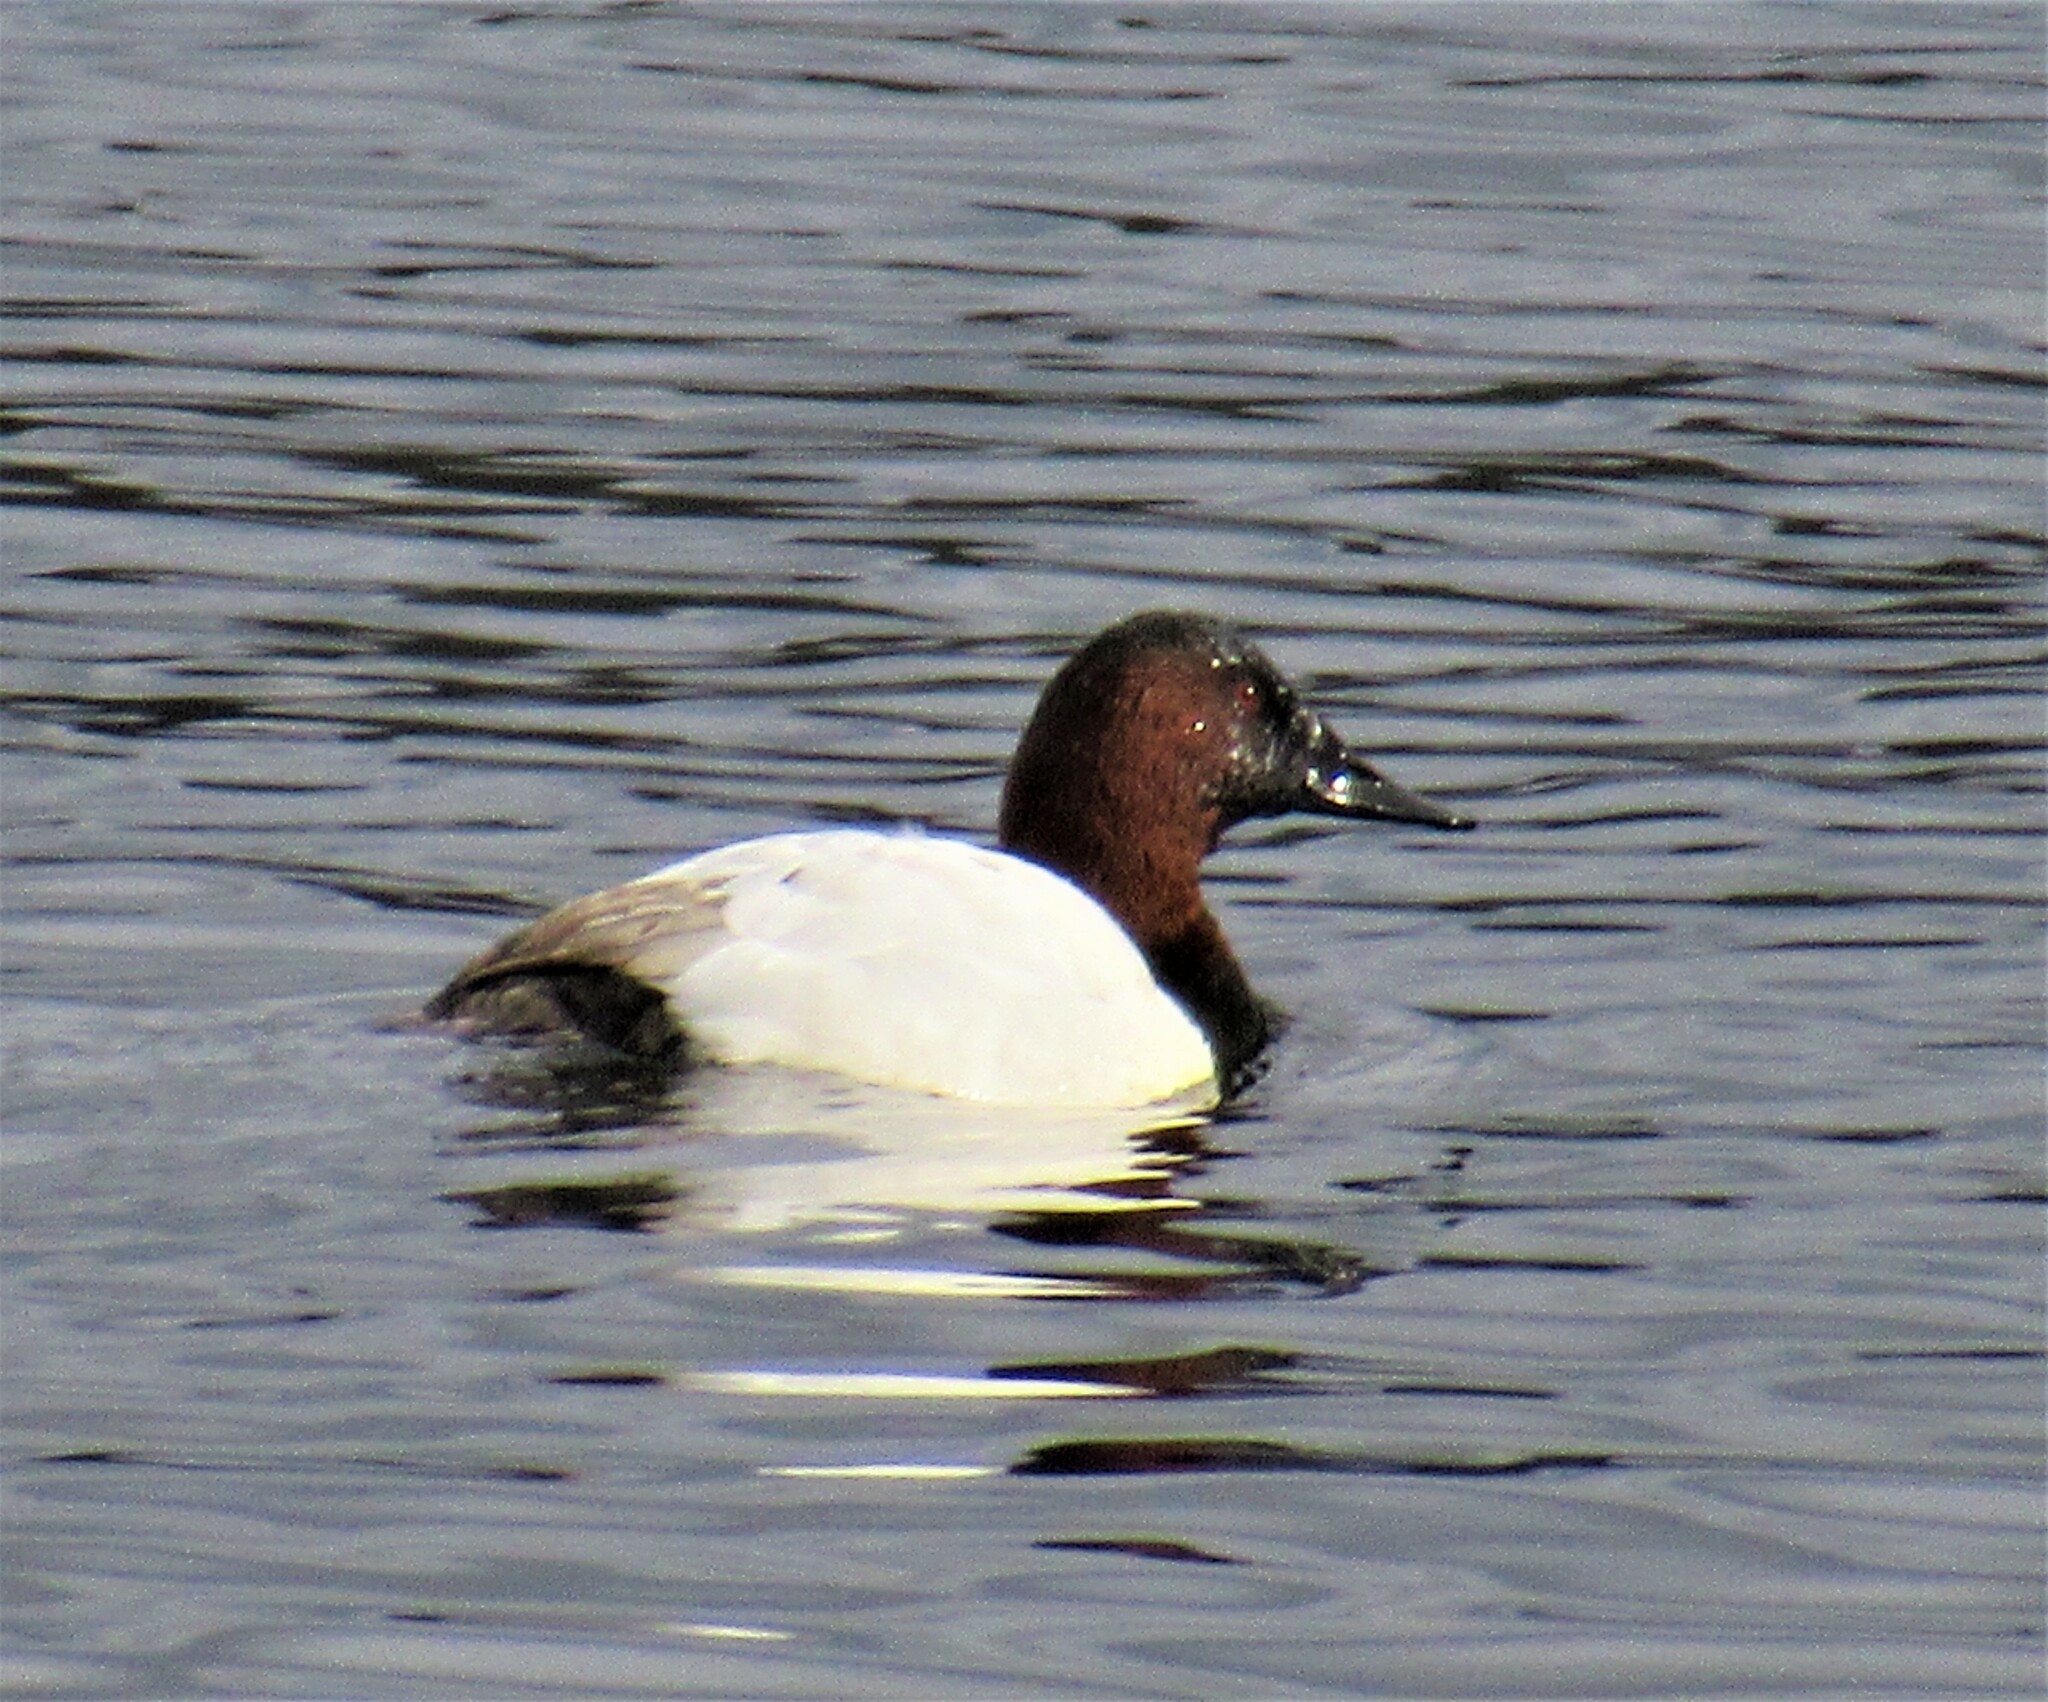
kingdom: Animalia
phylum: Chordata
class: Aves
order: Anseriformes
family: Anatidae
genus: Aythya
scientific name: Aythya valisineria
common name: Canvasback
